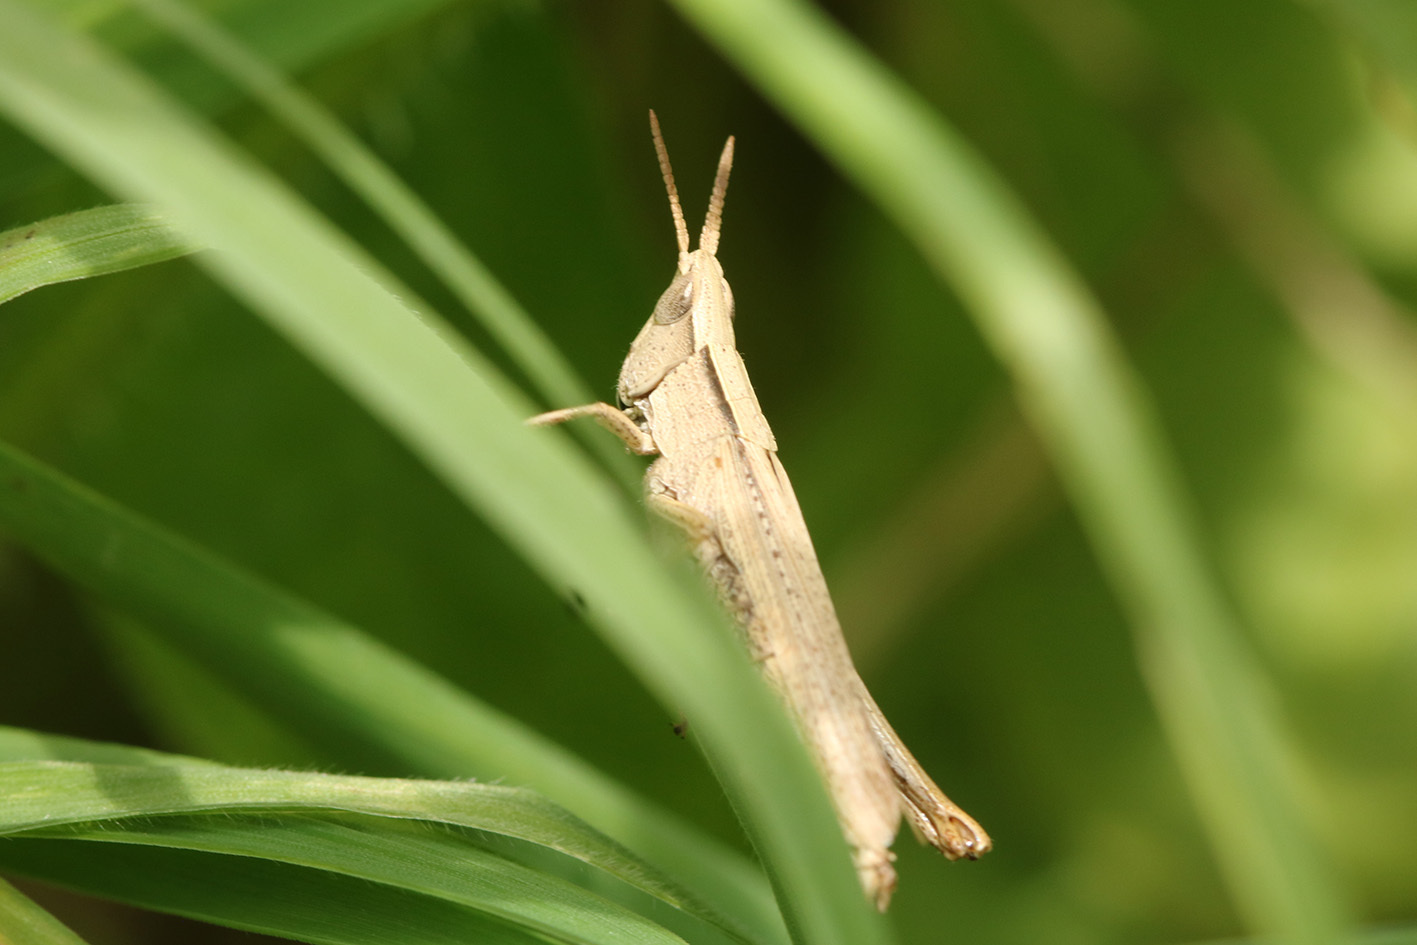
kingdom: Animalia
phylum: Arthropoda
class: Insecta
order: Orthoptera
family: Acrididae
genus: Laplatacris
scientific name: Laplatacris dispar
